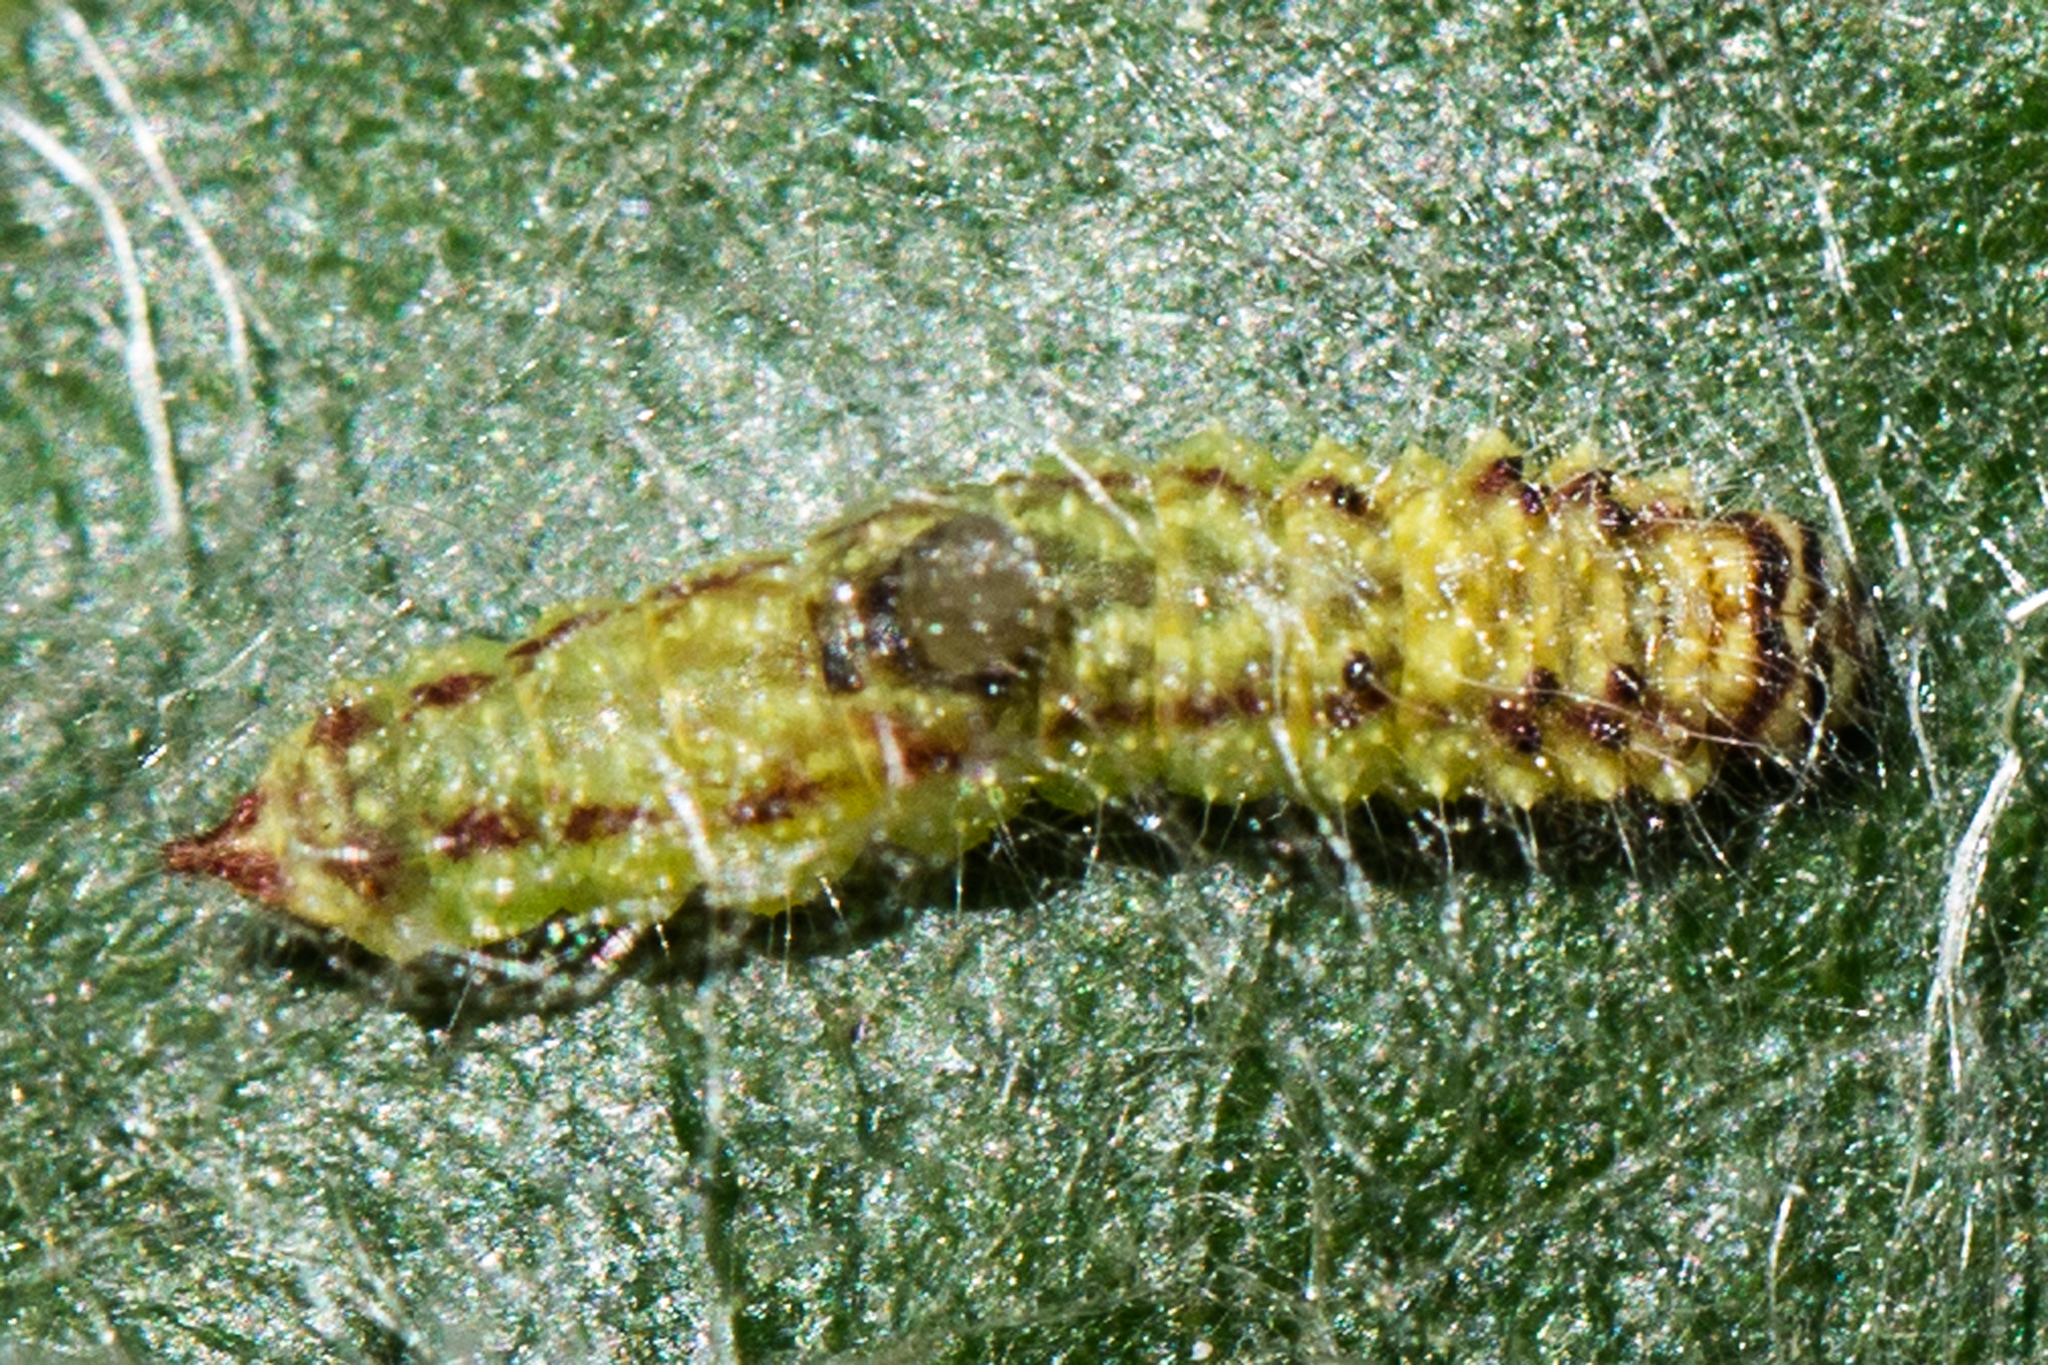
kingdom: Animalia
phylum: Arthropoda
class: Insecta
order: Lepidoptera
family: Drepanidae
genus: Drepana
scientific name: Drepana arcuata
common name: Arched hooktip moth
